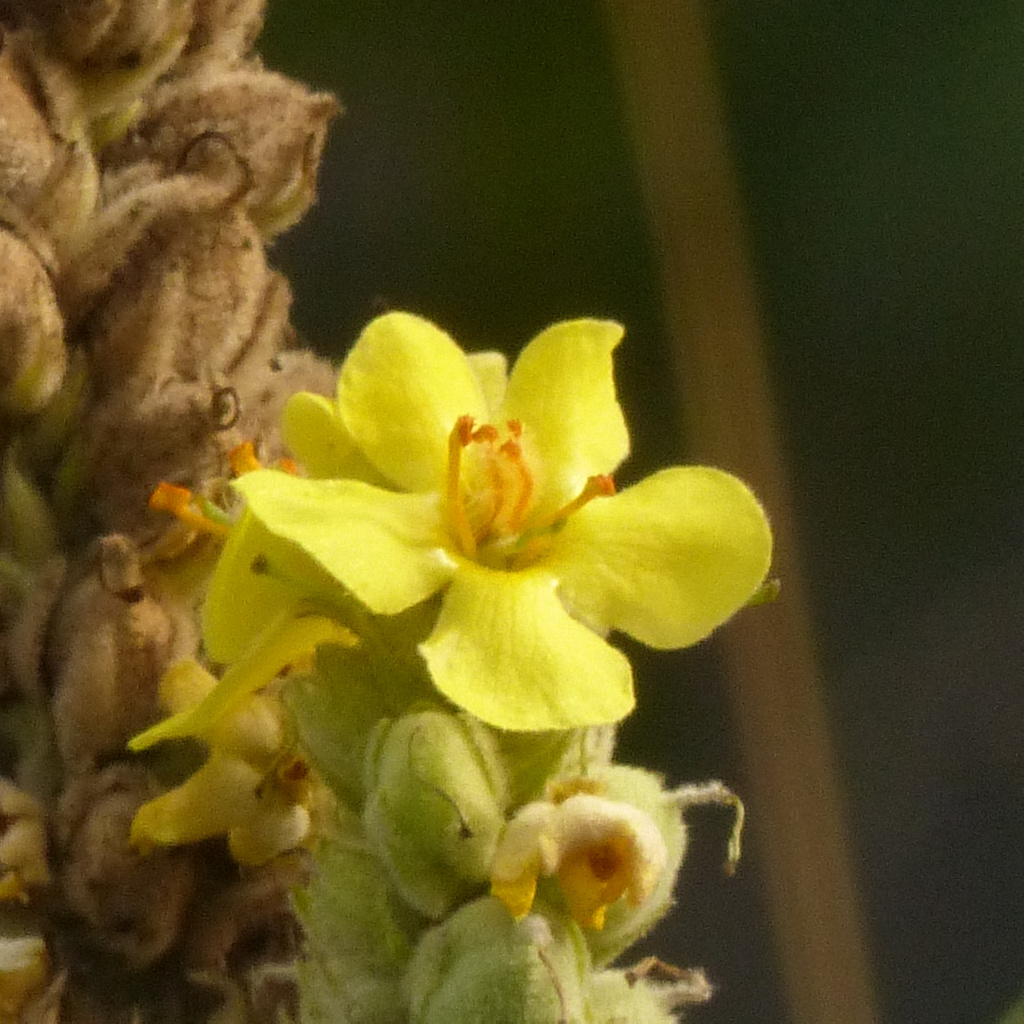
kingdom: Plantae
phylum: Tracheophyta
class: Magnoliopsida
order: Lamiales
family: Scrophulariaceae
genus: Verbascum
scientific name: Verbascum thapsus
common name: Common mullein
